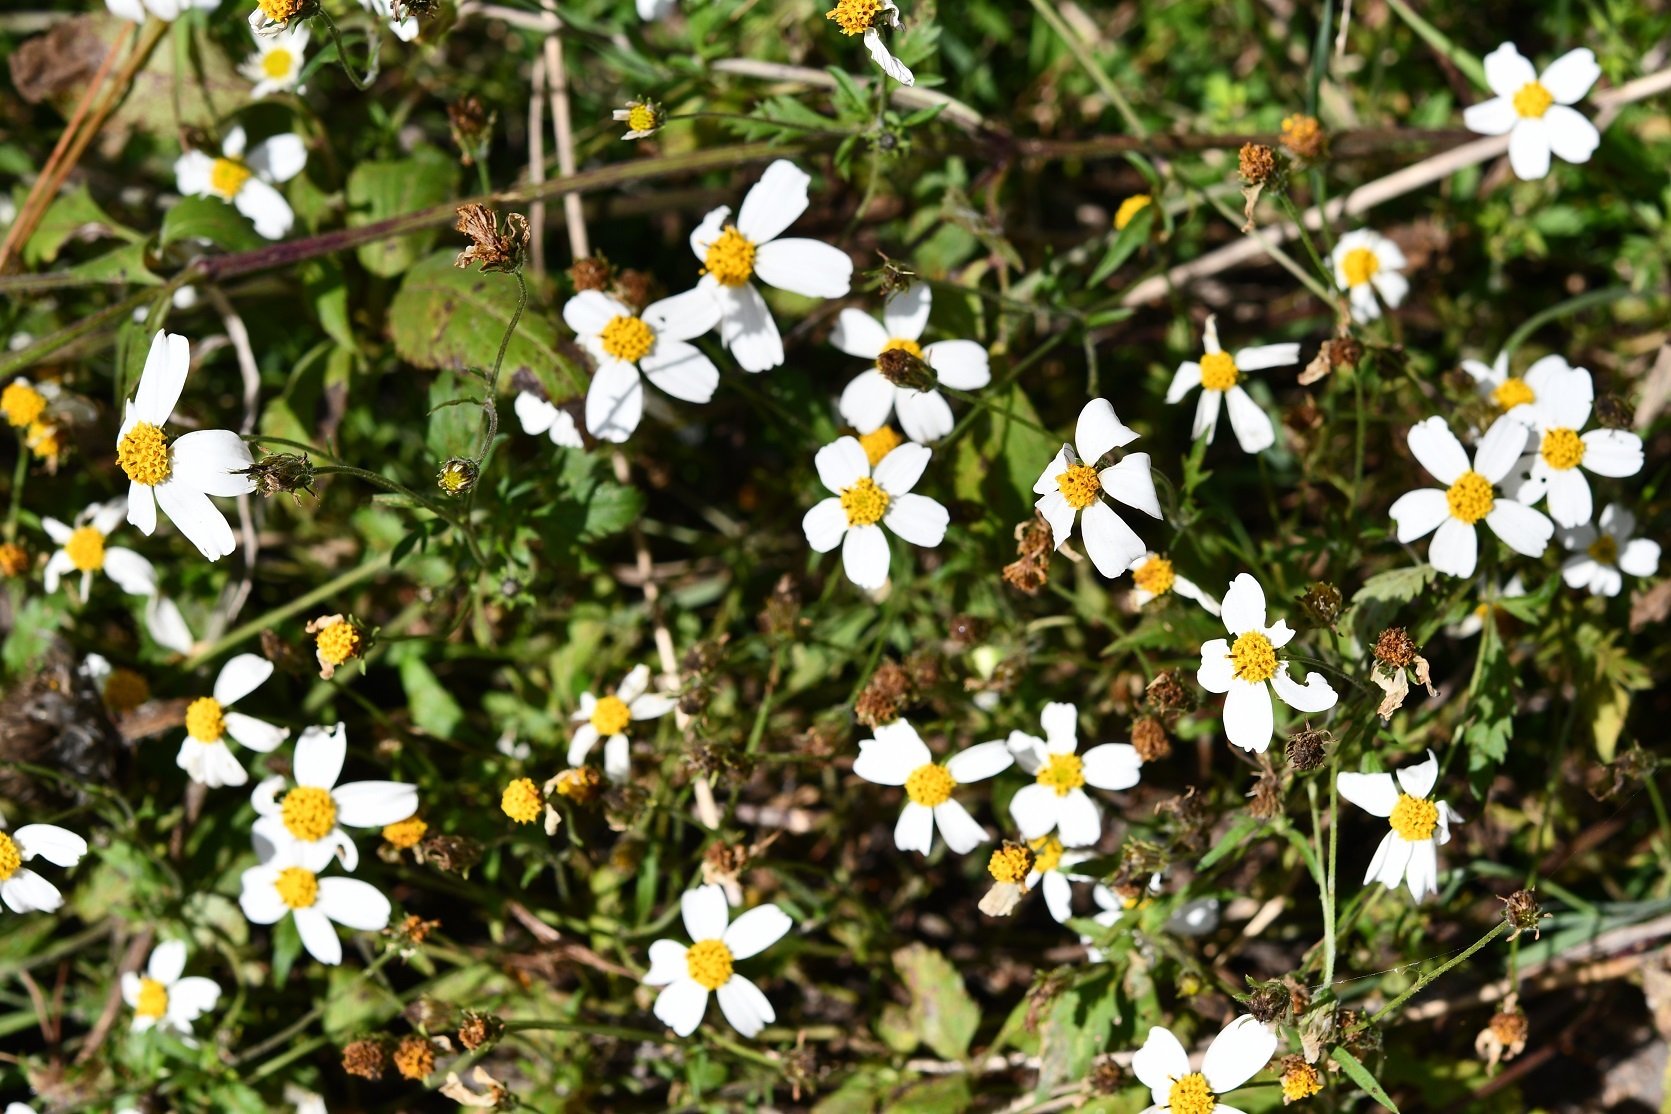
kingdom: Plantae
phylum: Tracheophyta
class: Magnoliopsida
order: Asterales
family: Asteraceae
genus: Bidens
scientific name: Bidens odorata
